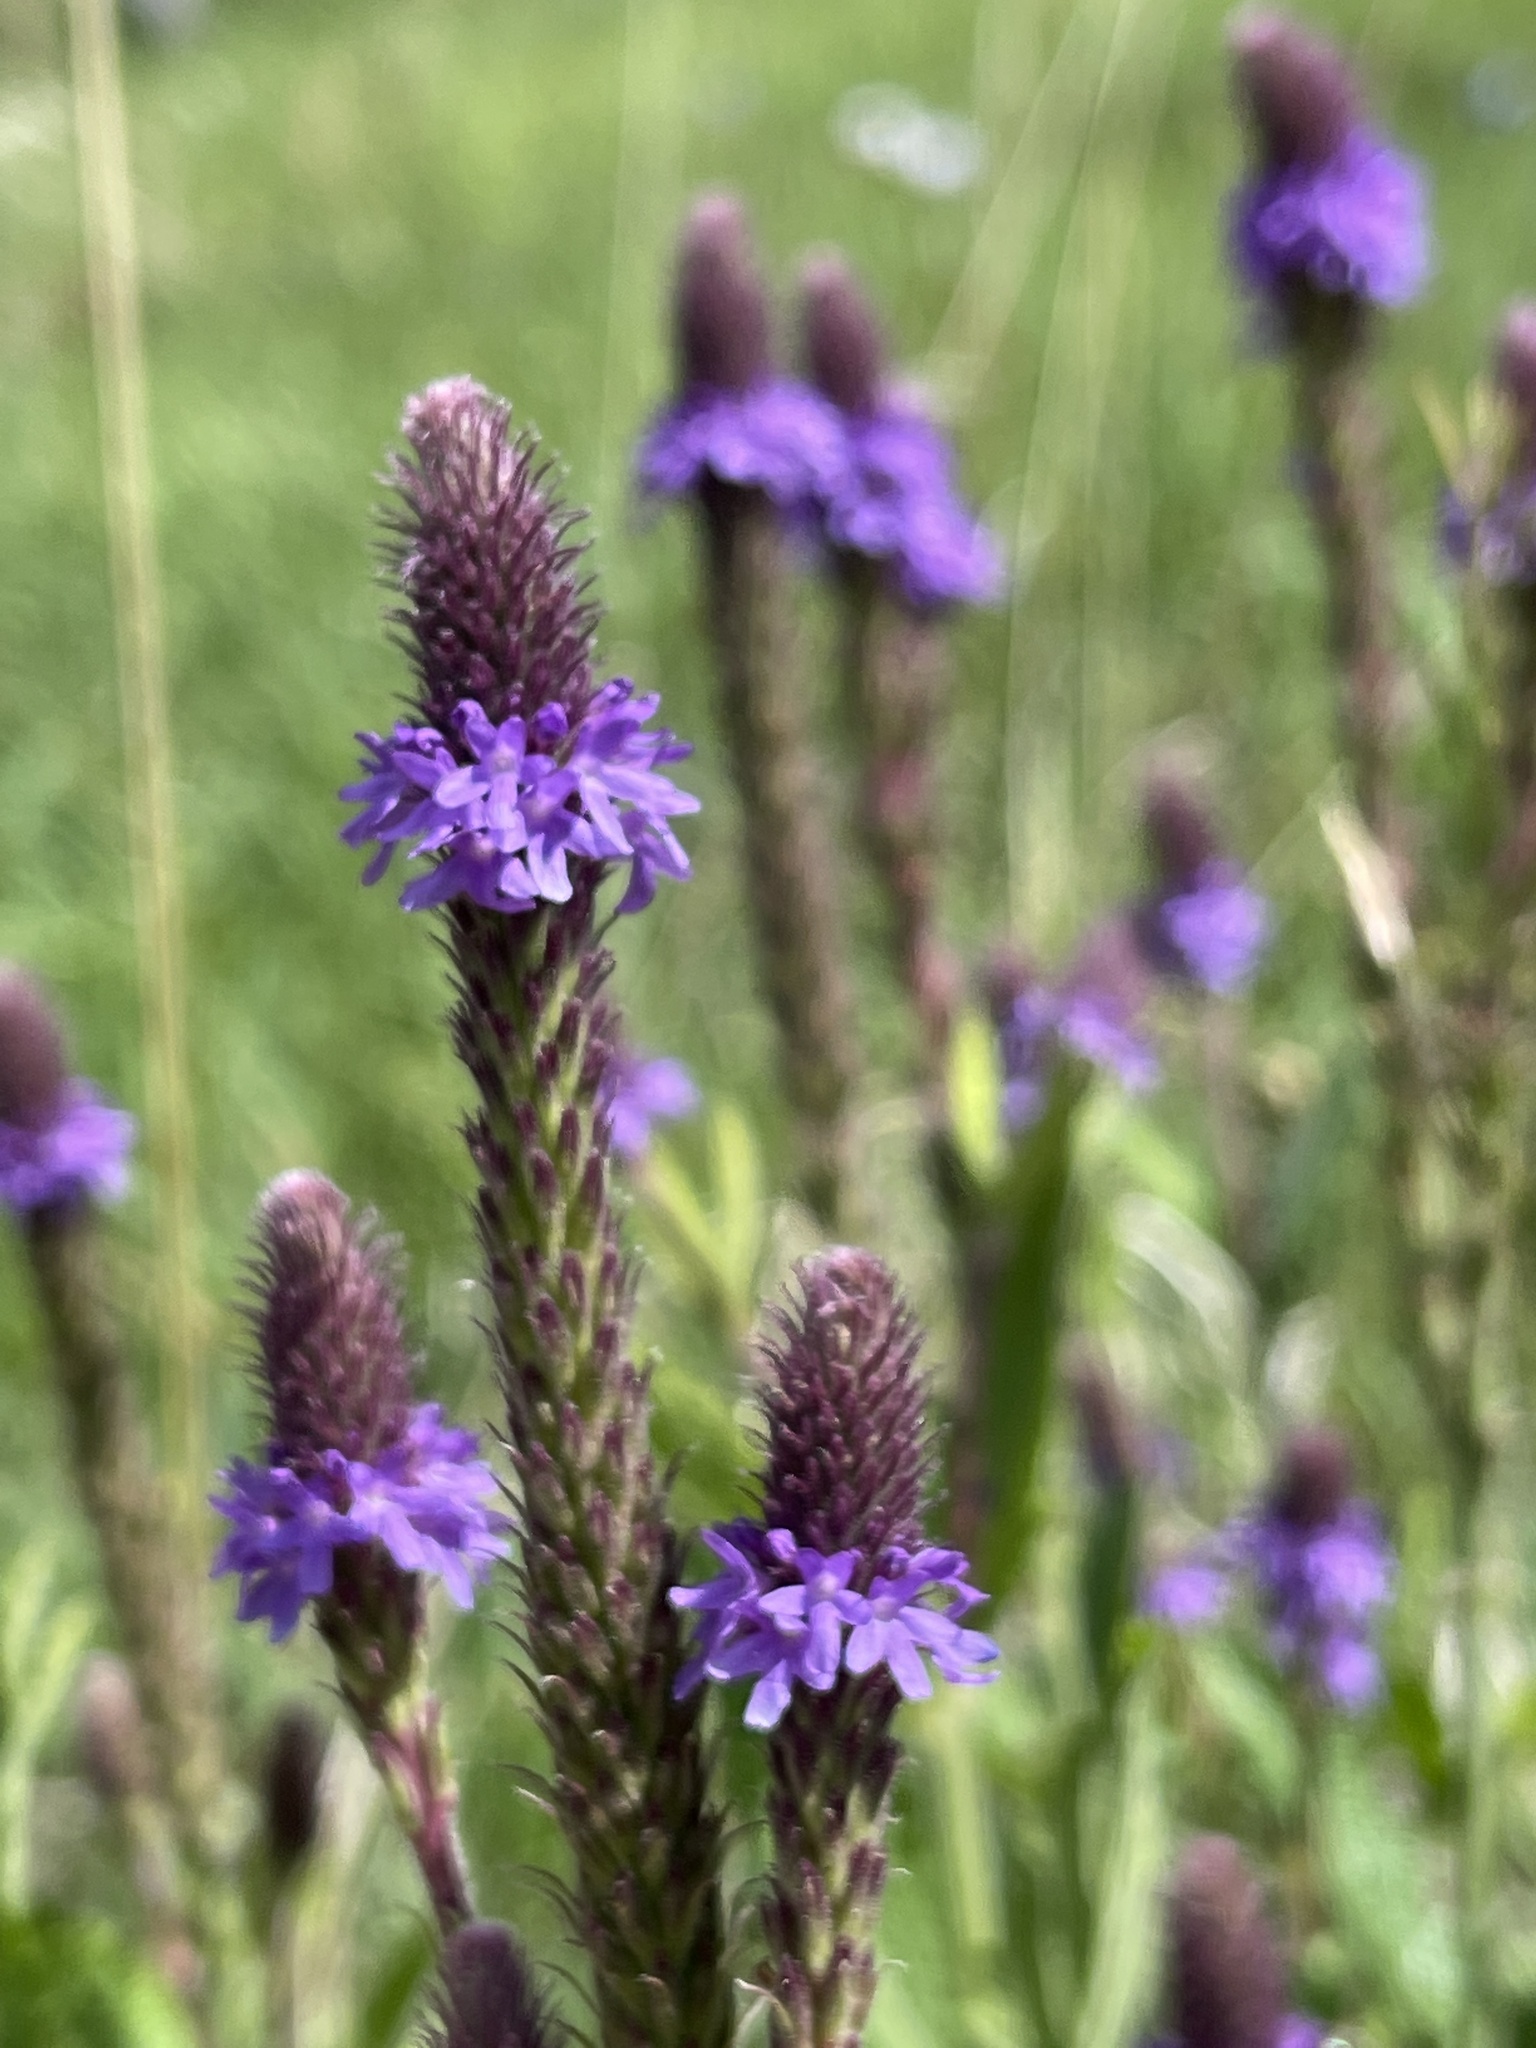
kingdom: Plantae
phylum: Tracheophyta
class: Magnoliopsida
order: Lamiales
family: Verbenaceae
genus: Verbena
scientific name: Verbena macdougalii
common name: New mexico vervain
